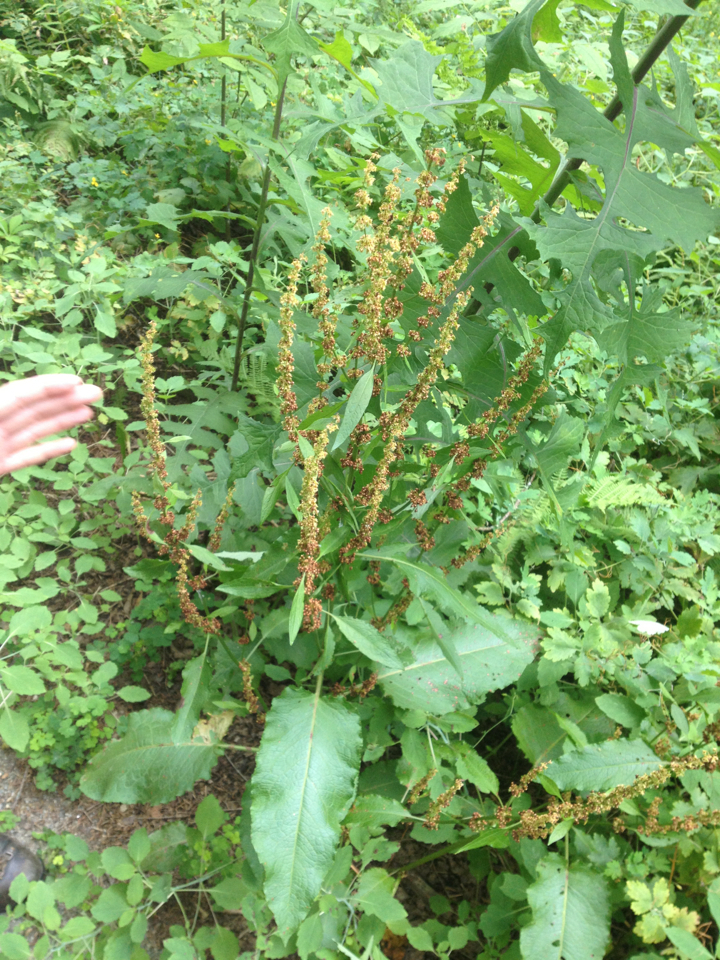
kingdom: Plantae
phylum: Tracheophyta
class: Magnoliopsida
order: Caryophyllales
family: Polygonaceae
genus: Rumex
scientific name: Rumex obtusifolius
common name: Bitter dock
